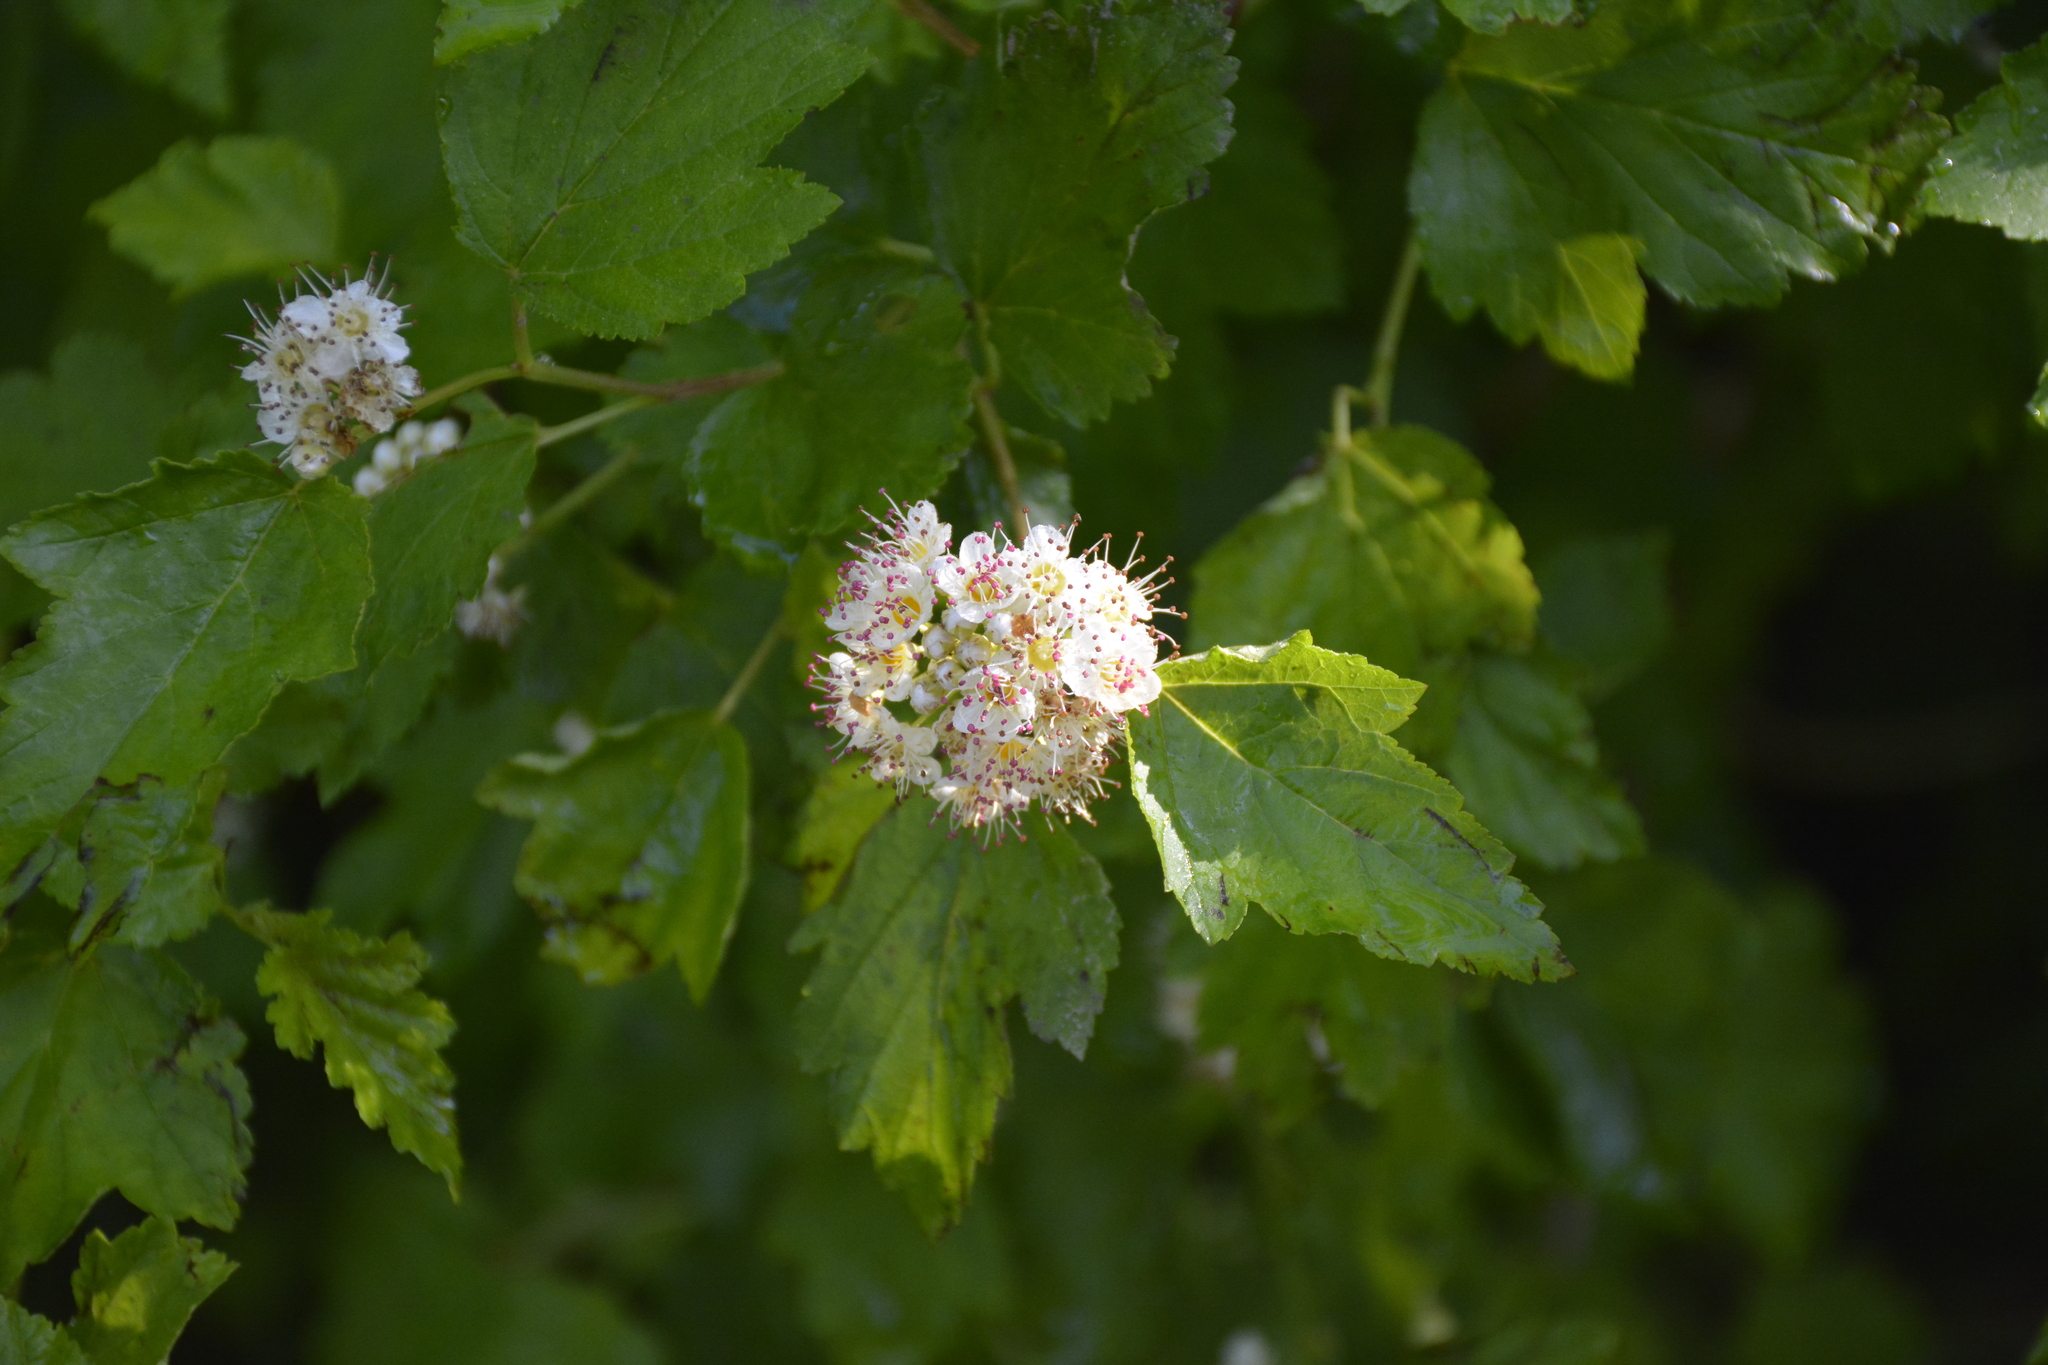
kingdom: Plantae
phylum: Tracheophyta
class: Magnoliopsida
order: Rosales
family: Rosaceae
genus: Physocarpus
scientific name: Physocarpus opulifolius
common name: Ninebark
